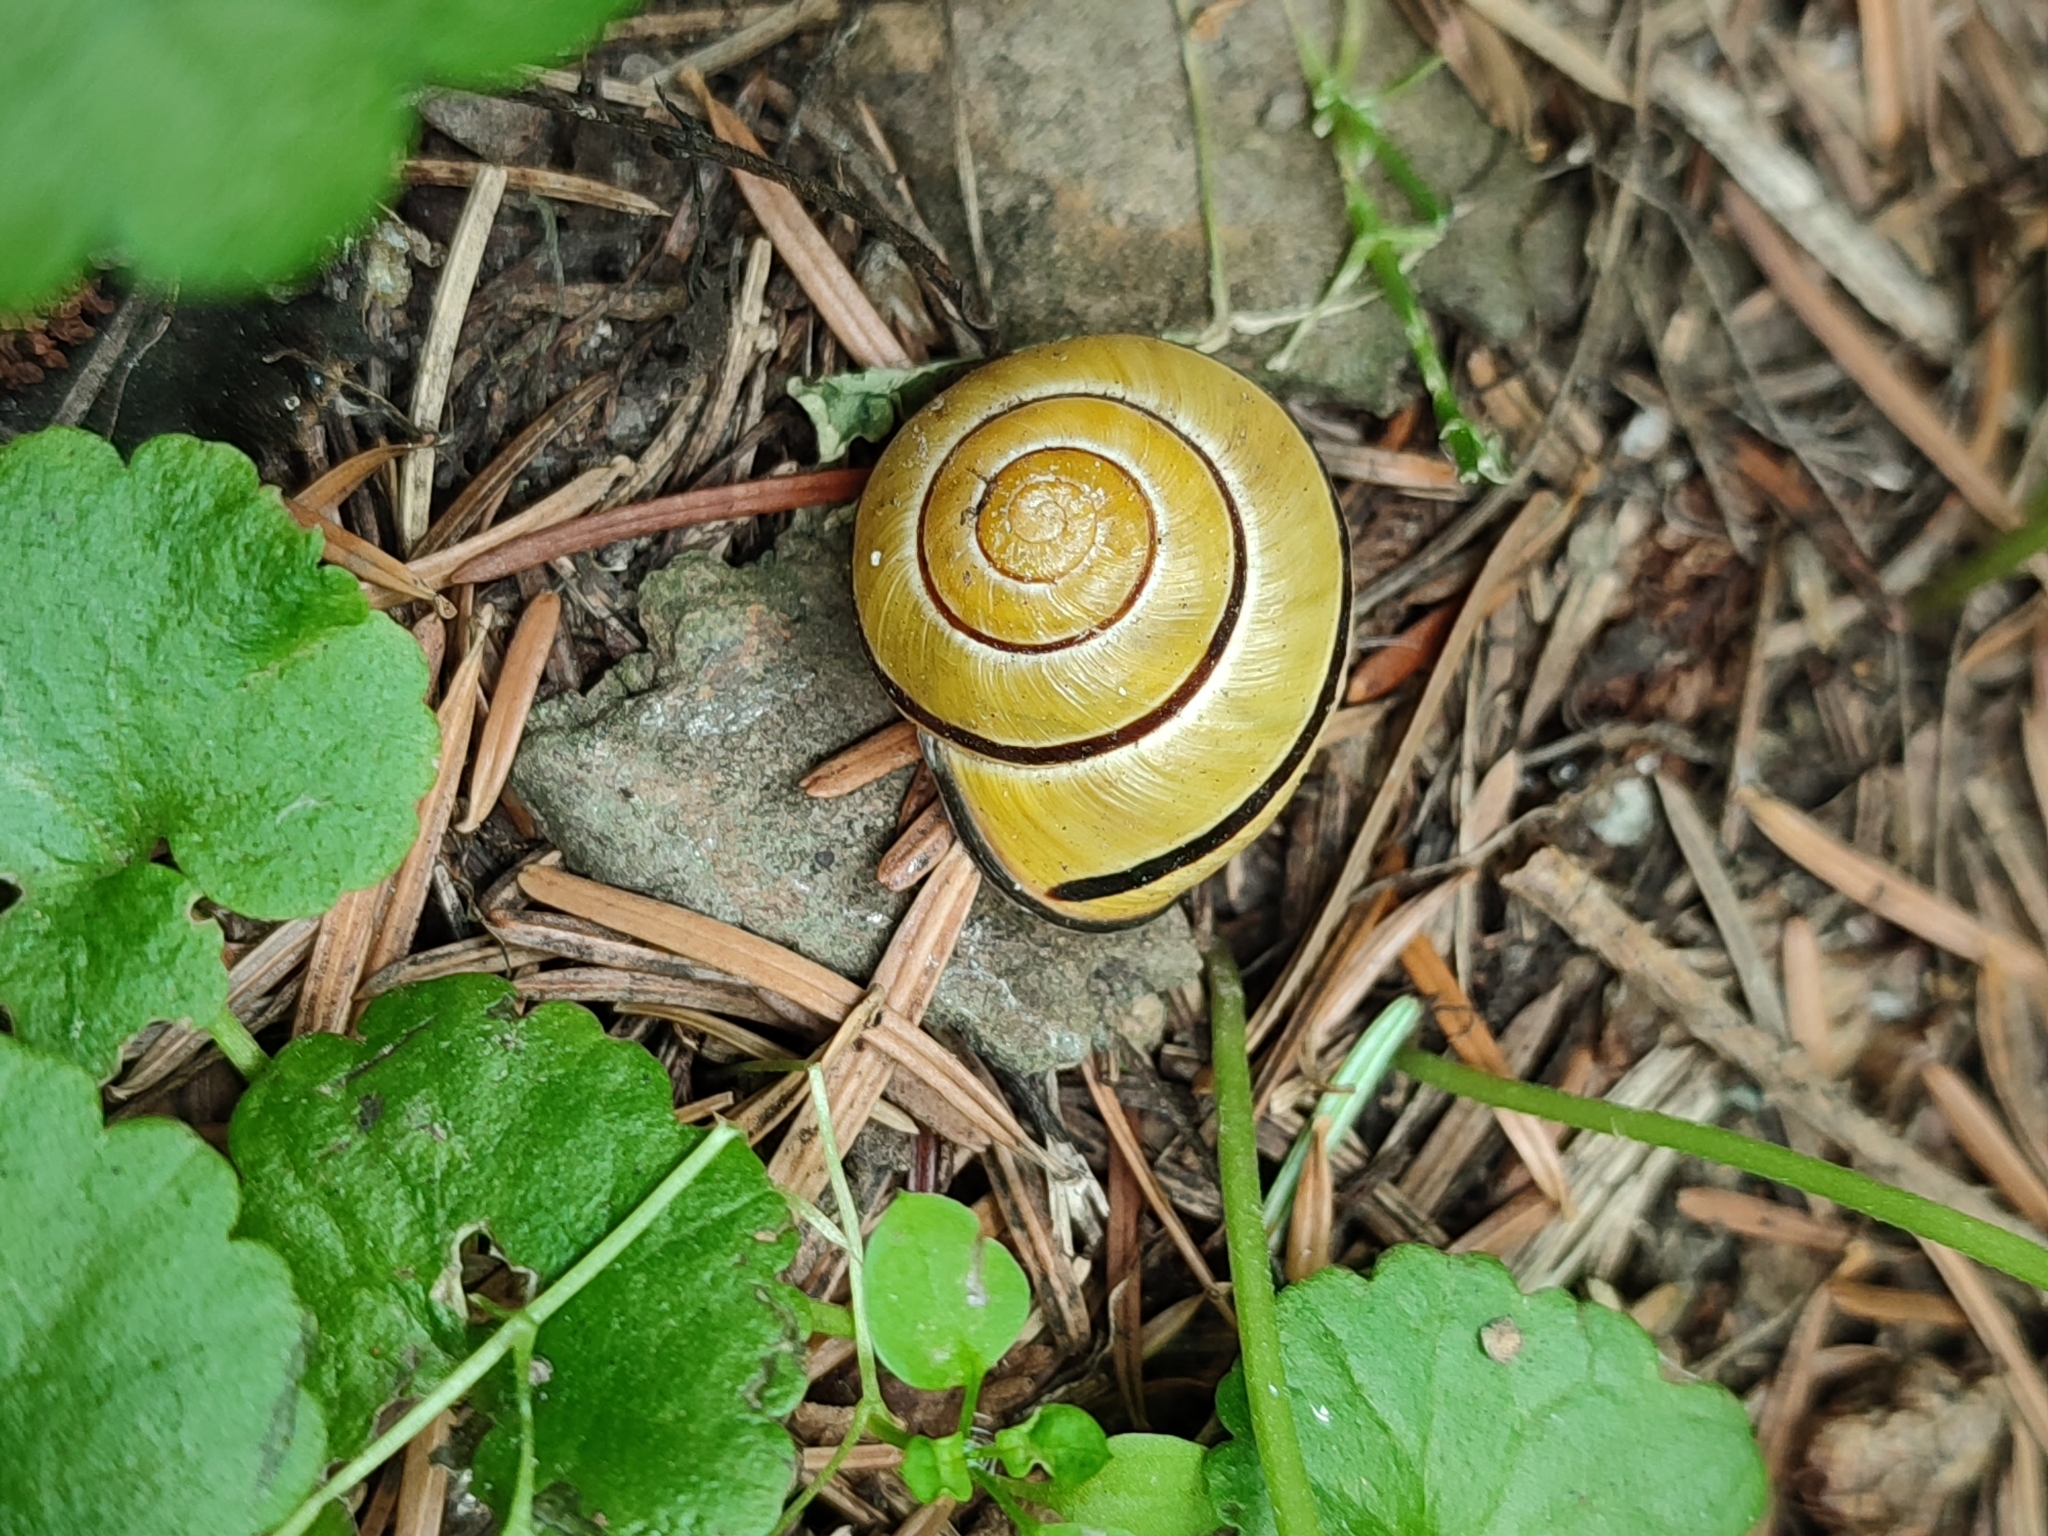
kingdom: Animalia
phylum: Mollusca
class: Gastropoda
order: Stylommatophora
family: Helicidae
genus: Cepaea
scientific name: Cepaea nemoralis
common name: Grovesnail
